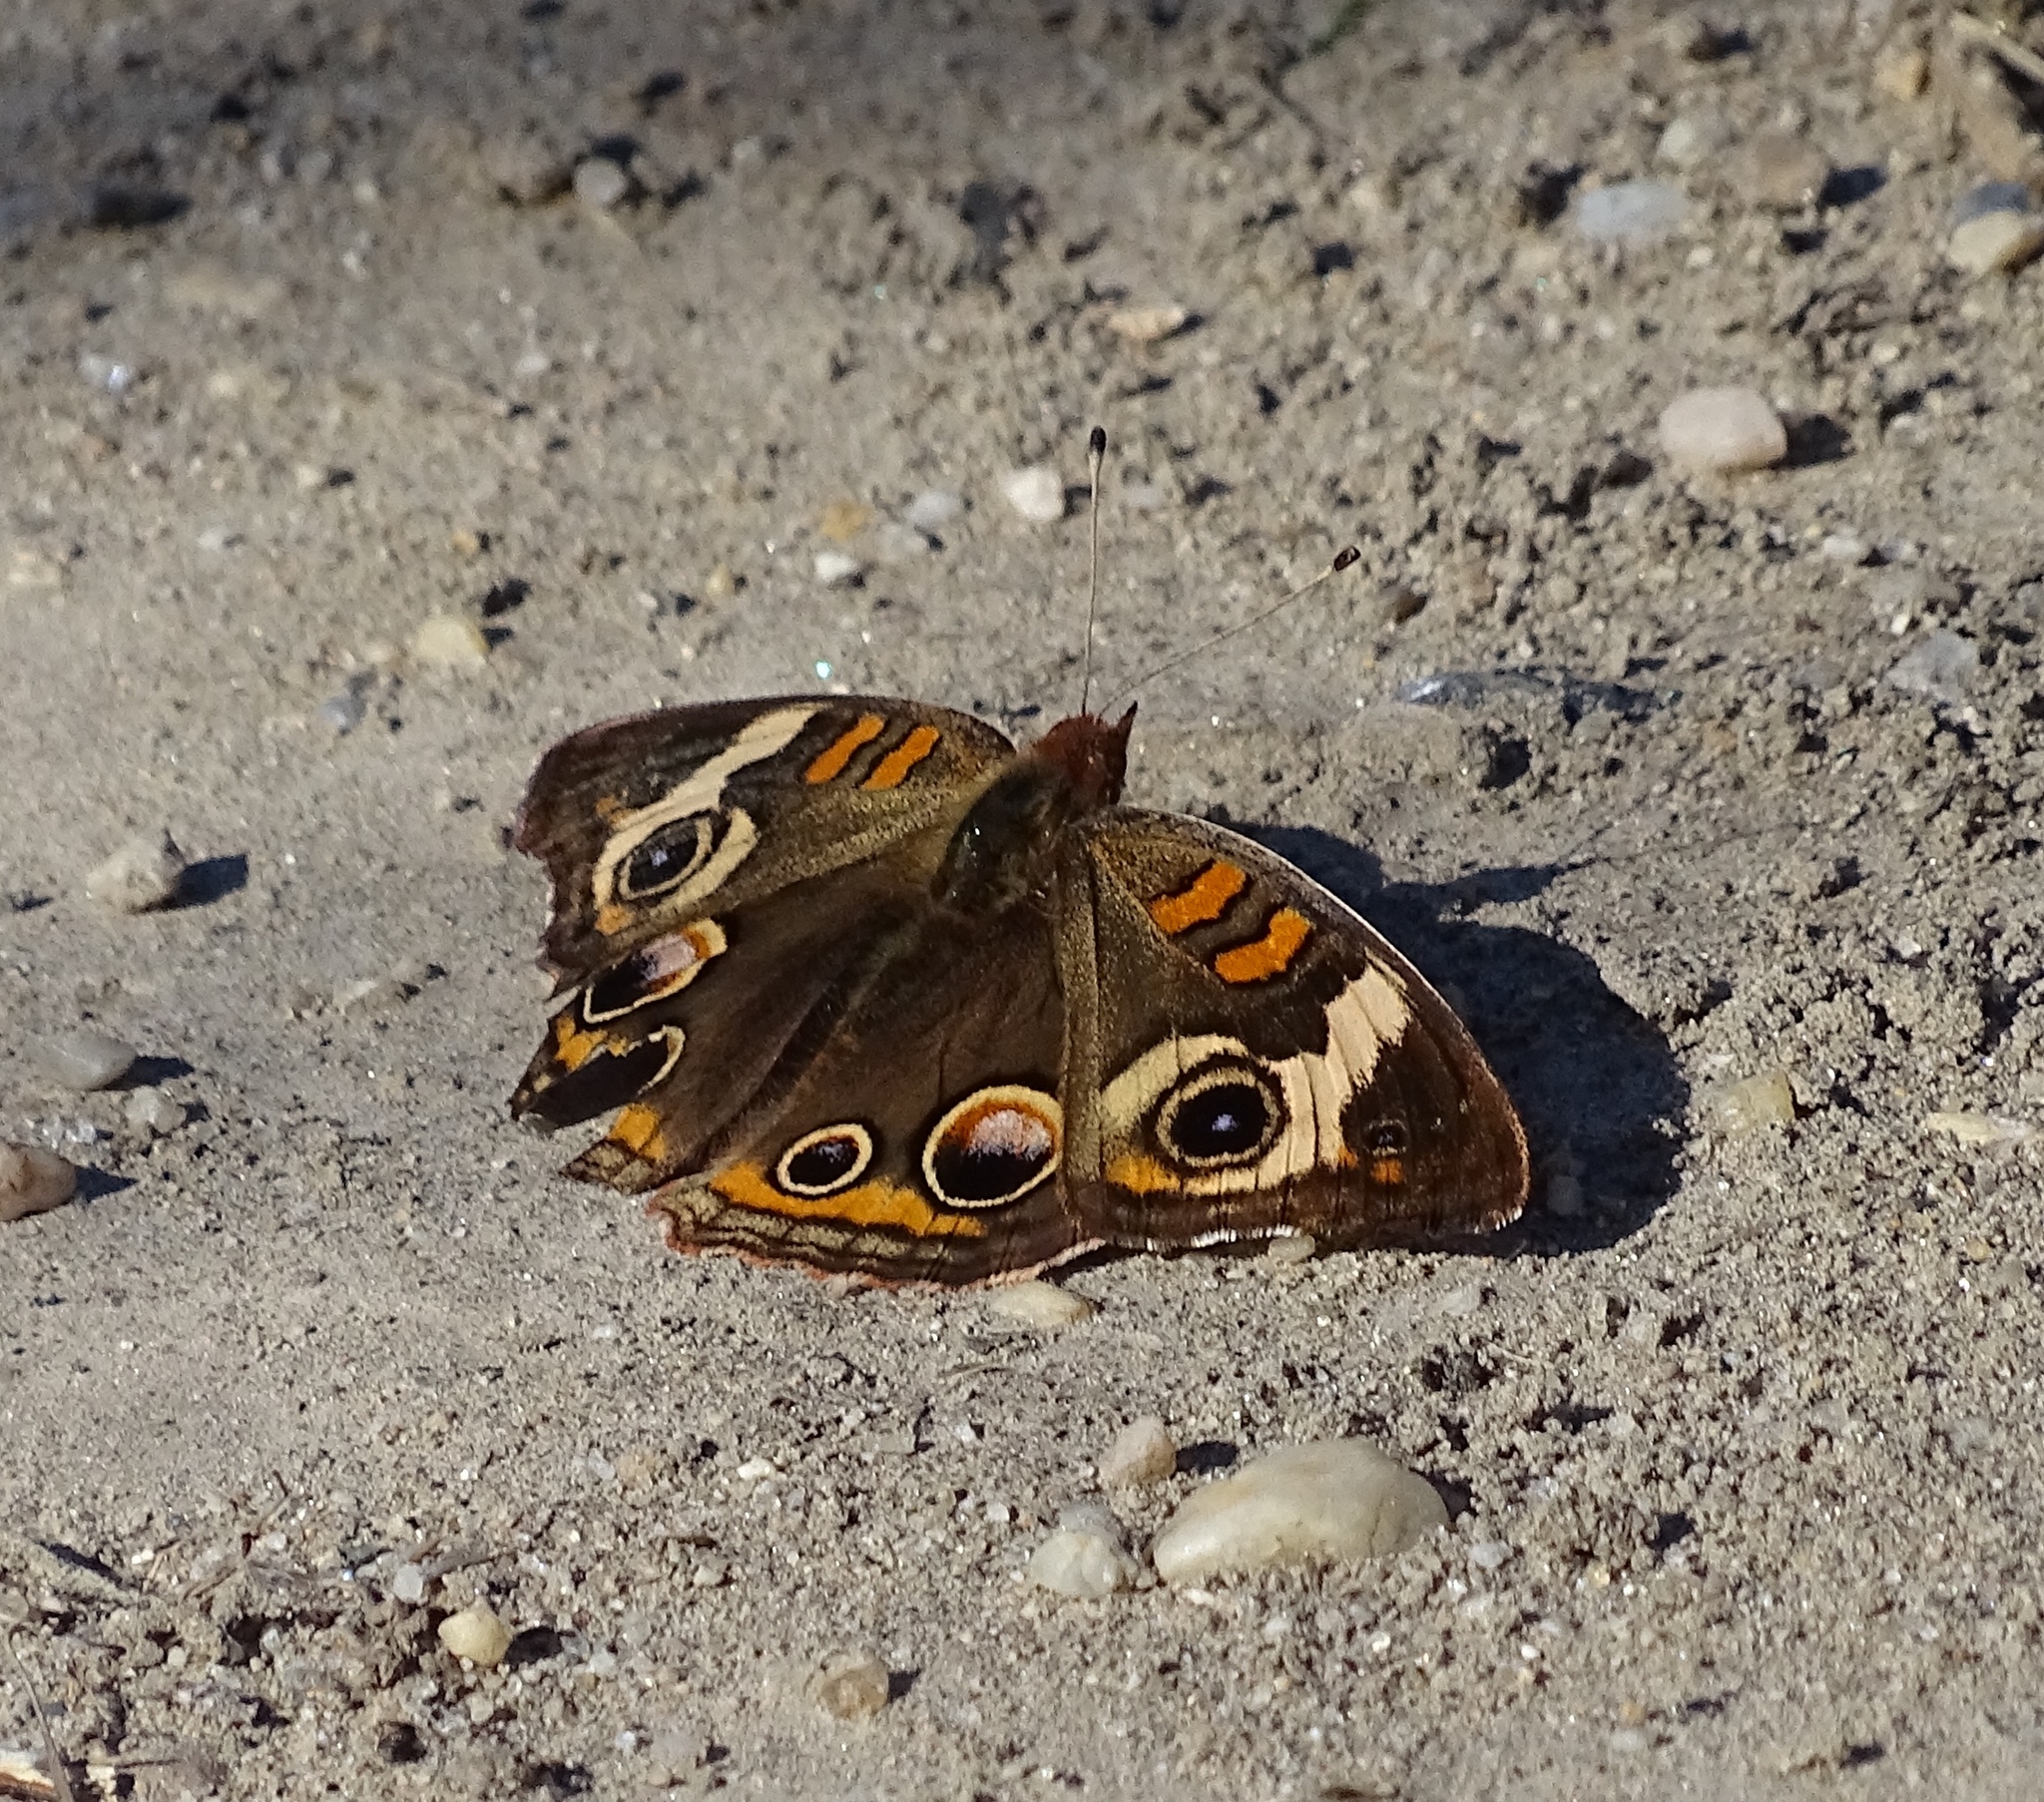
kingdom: Animalia
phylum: Arthropoda
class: Insecta
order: Lepidoptera
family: Nymphalidae
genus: Junonia
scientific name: Junonia coenia
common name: Common buckeye
